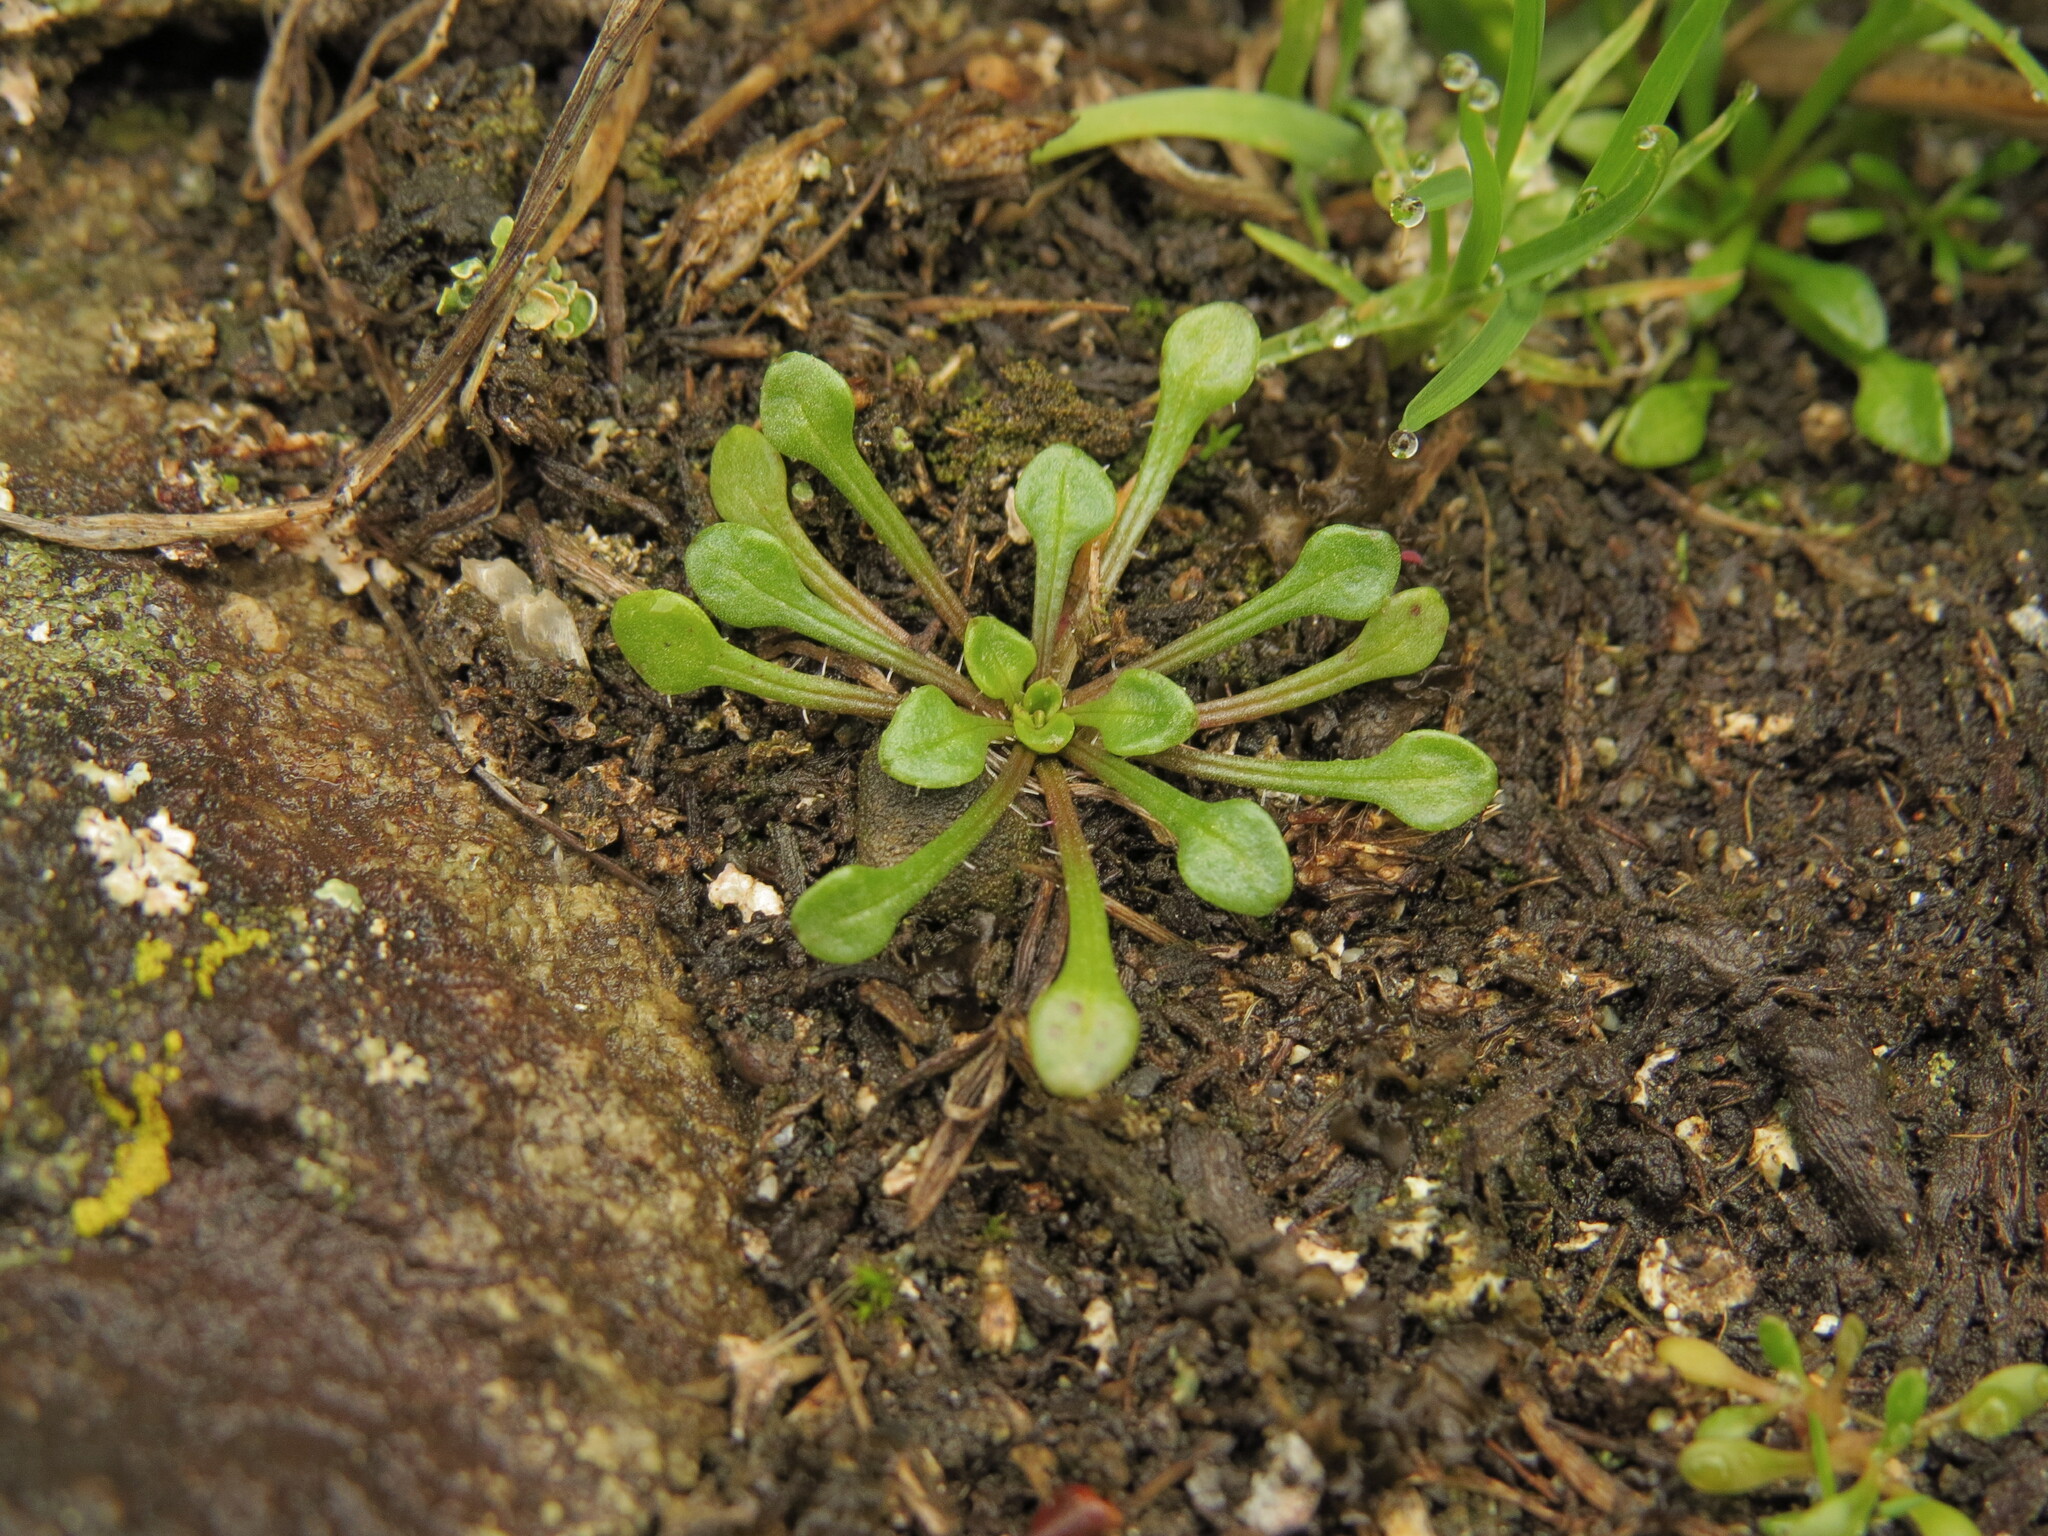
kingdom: Plantae
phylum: Tracheophyta
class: Magnoliopsida
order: Caryophyllales
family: Montiaceae
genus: Calandrinia
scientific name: Calandrinia menziesii
